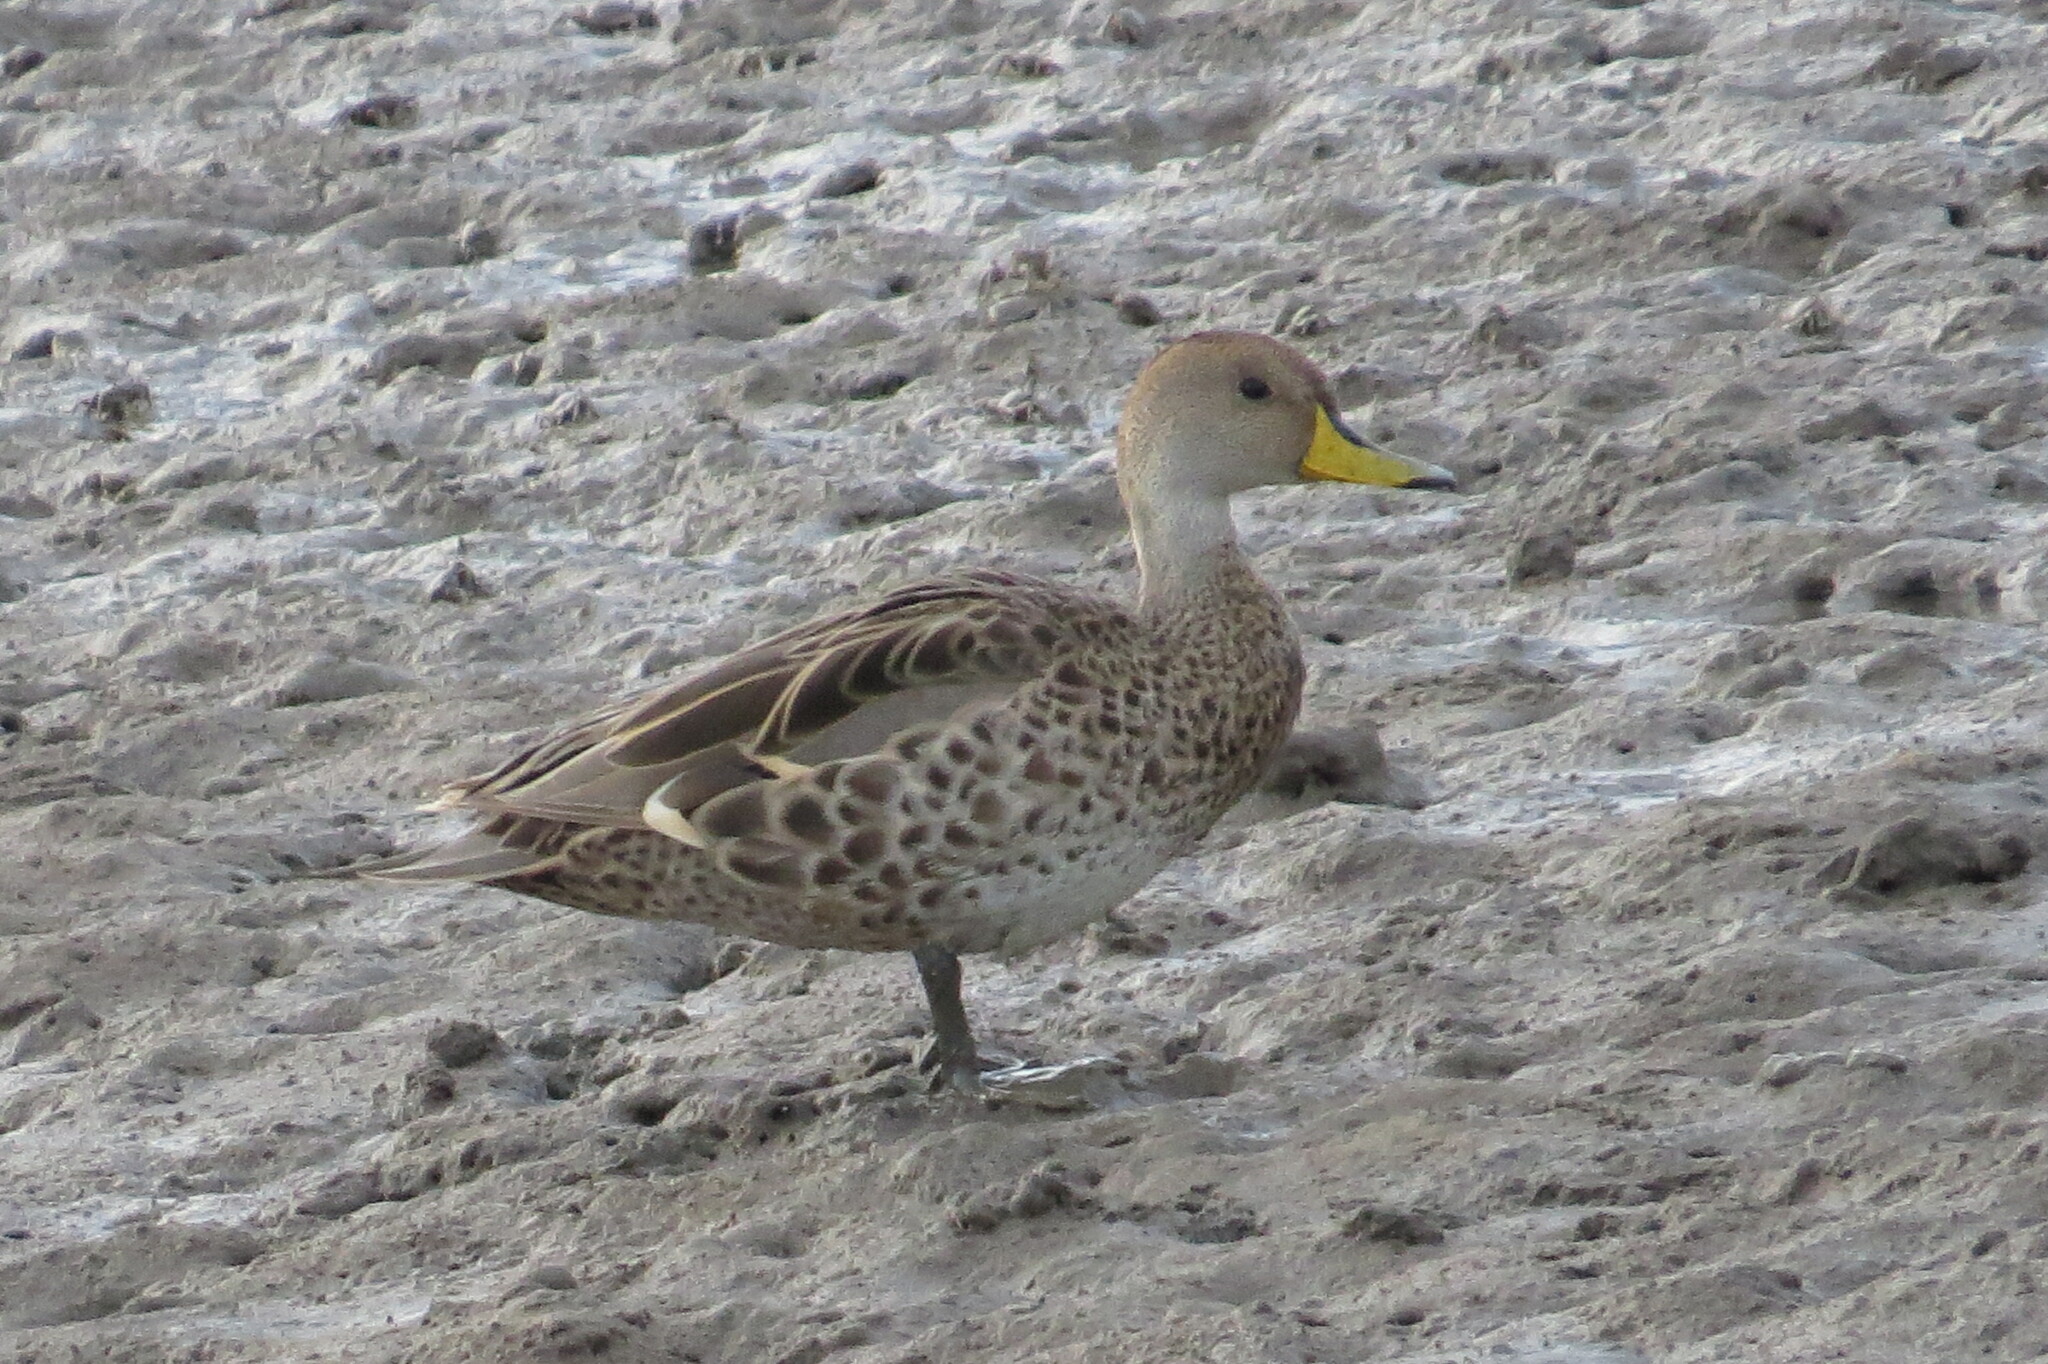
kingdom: Animalia
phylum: Chordata
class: Aves
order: Anseriformes
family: Anatidae
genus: Anas
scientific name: Anas georgica
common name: Yellow-billed pintail
